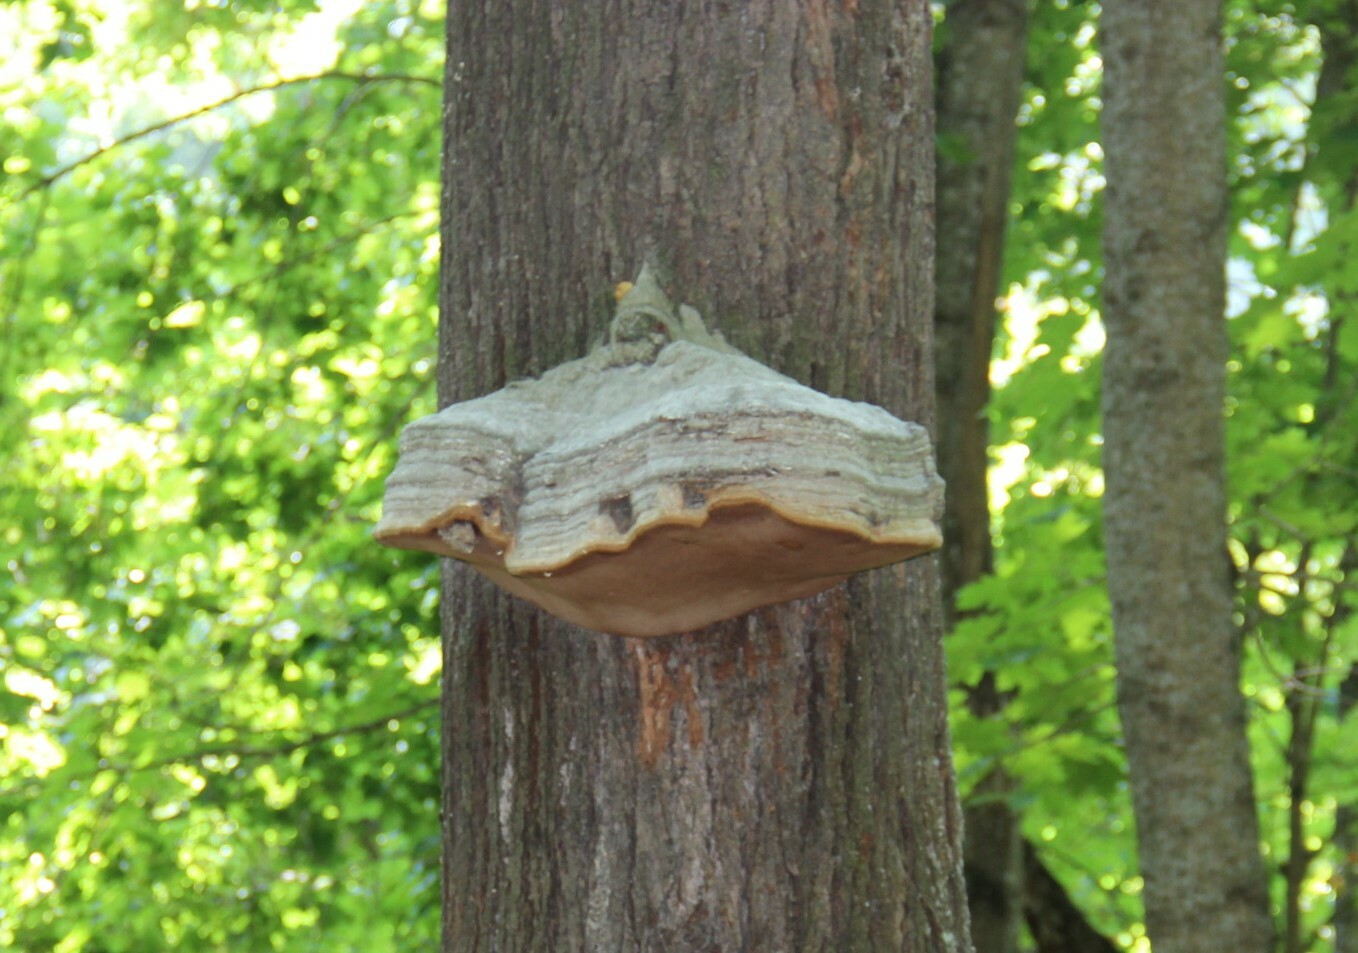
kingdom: Fungi
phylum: Basidiomycota
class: Agaricomycetes
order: Polyporales
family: Polyporaceae
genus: Fomes
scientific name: Fomes fomentarius
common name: Hoof fungus
